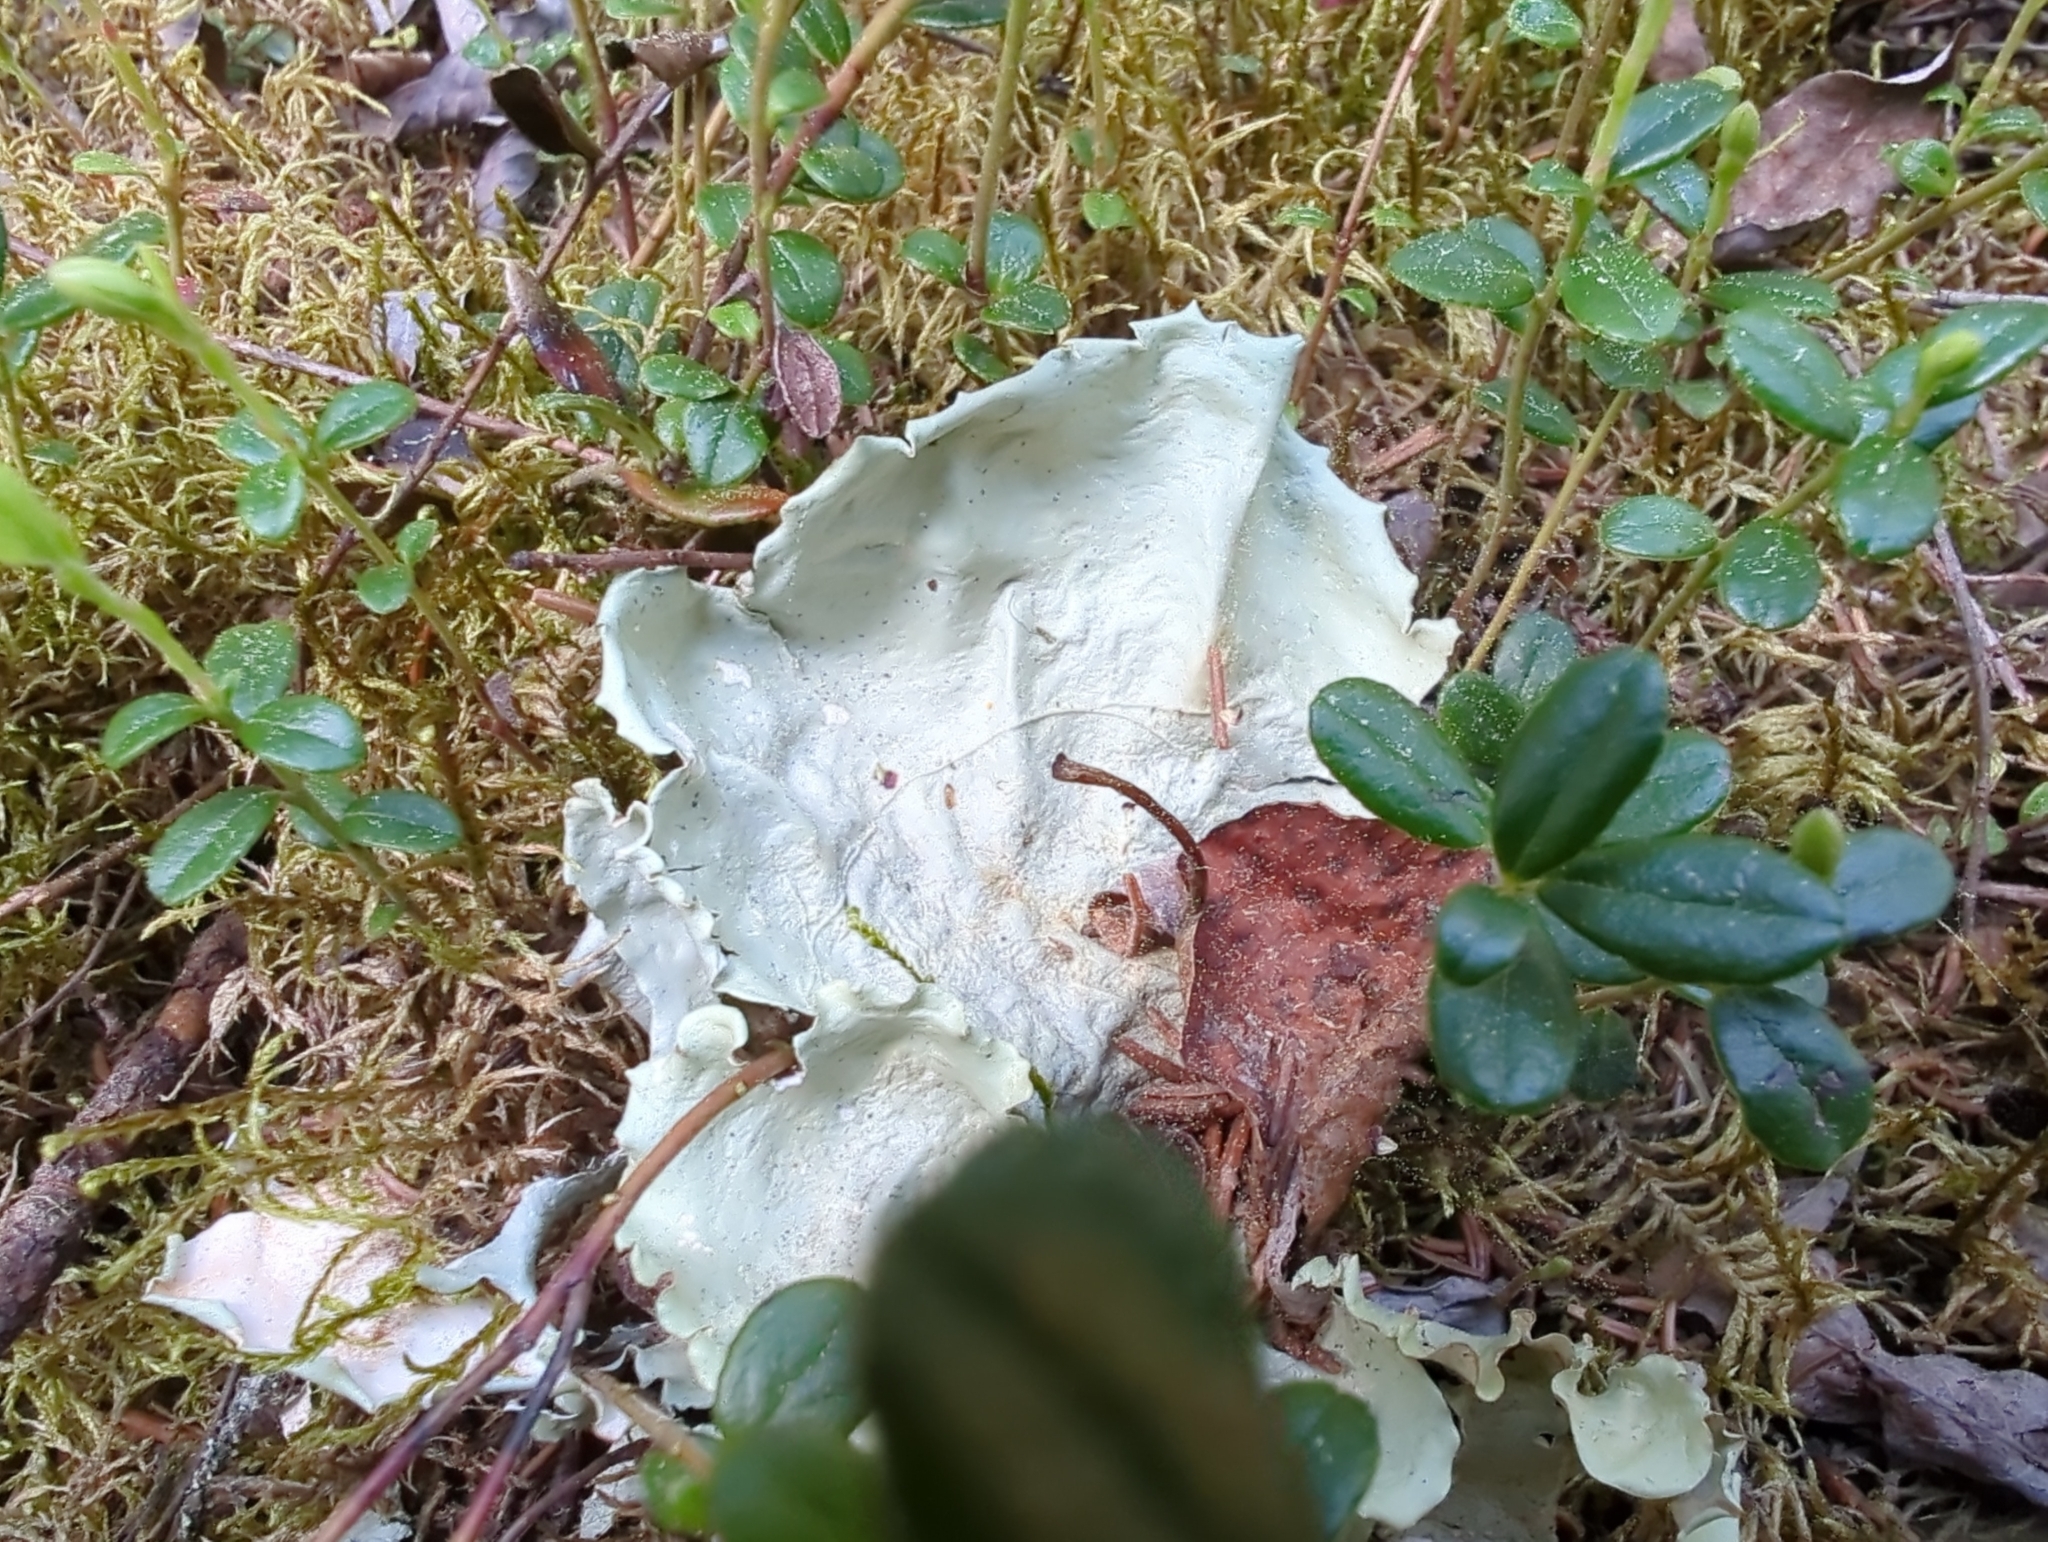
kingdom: Fungi
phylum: Ascomycota
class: Lecanoromycetes
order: Peltigerales
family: Nephromataceae
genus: Nephroma
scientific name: Nephroma arcticum
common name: Arctic kidney-lichen
